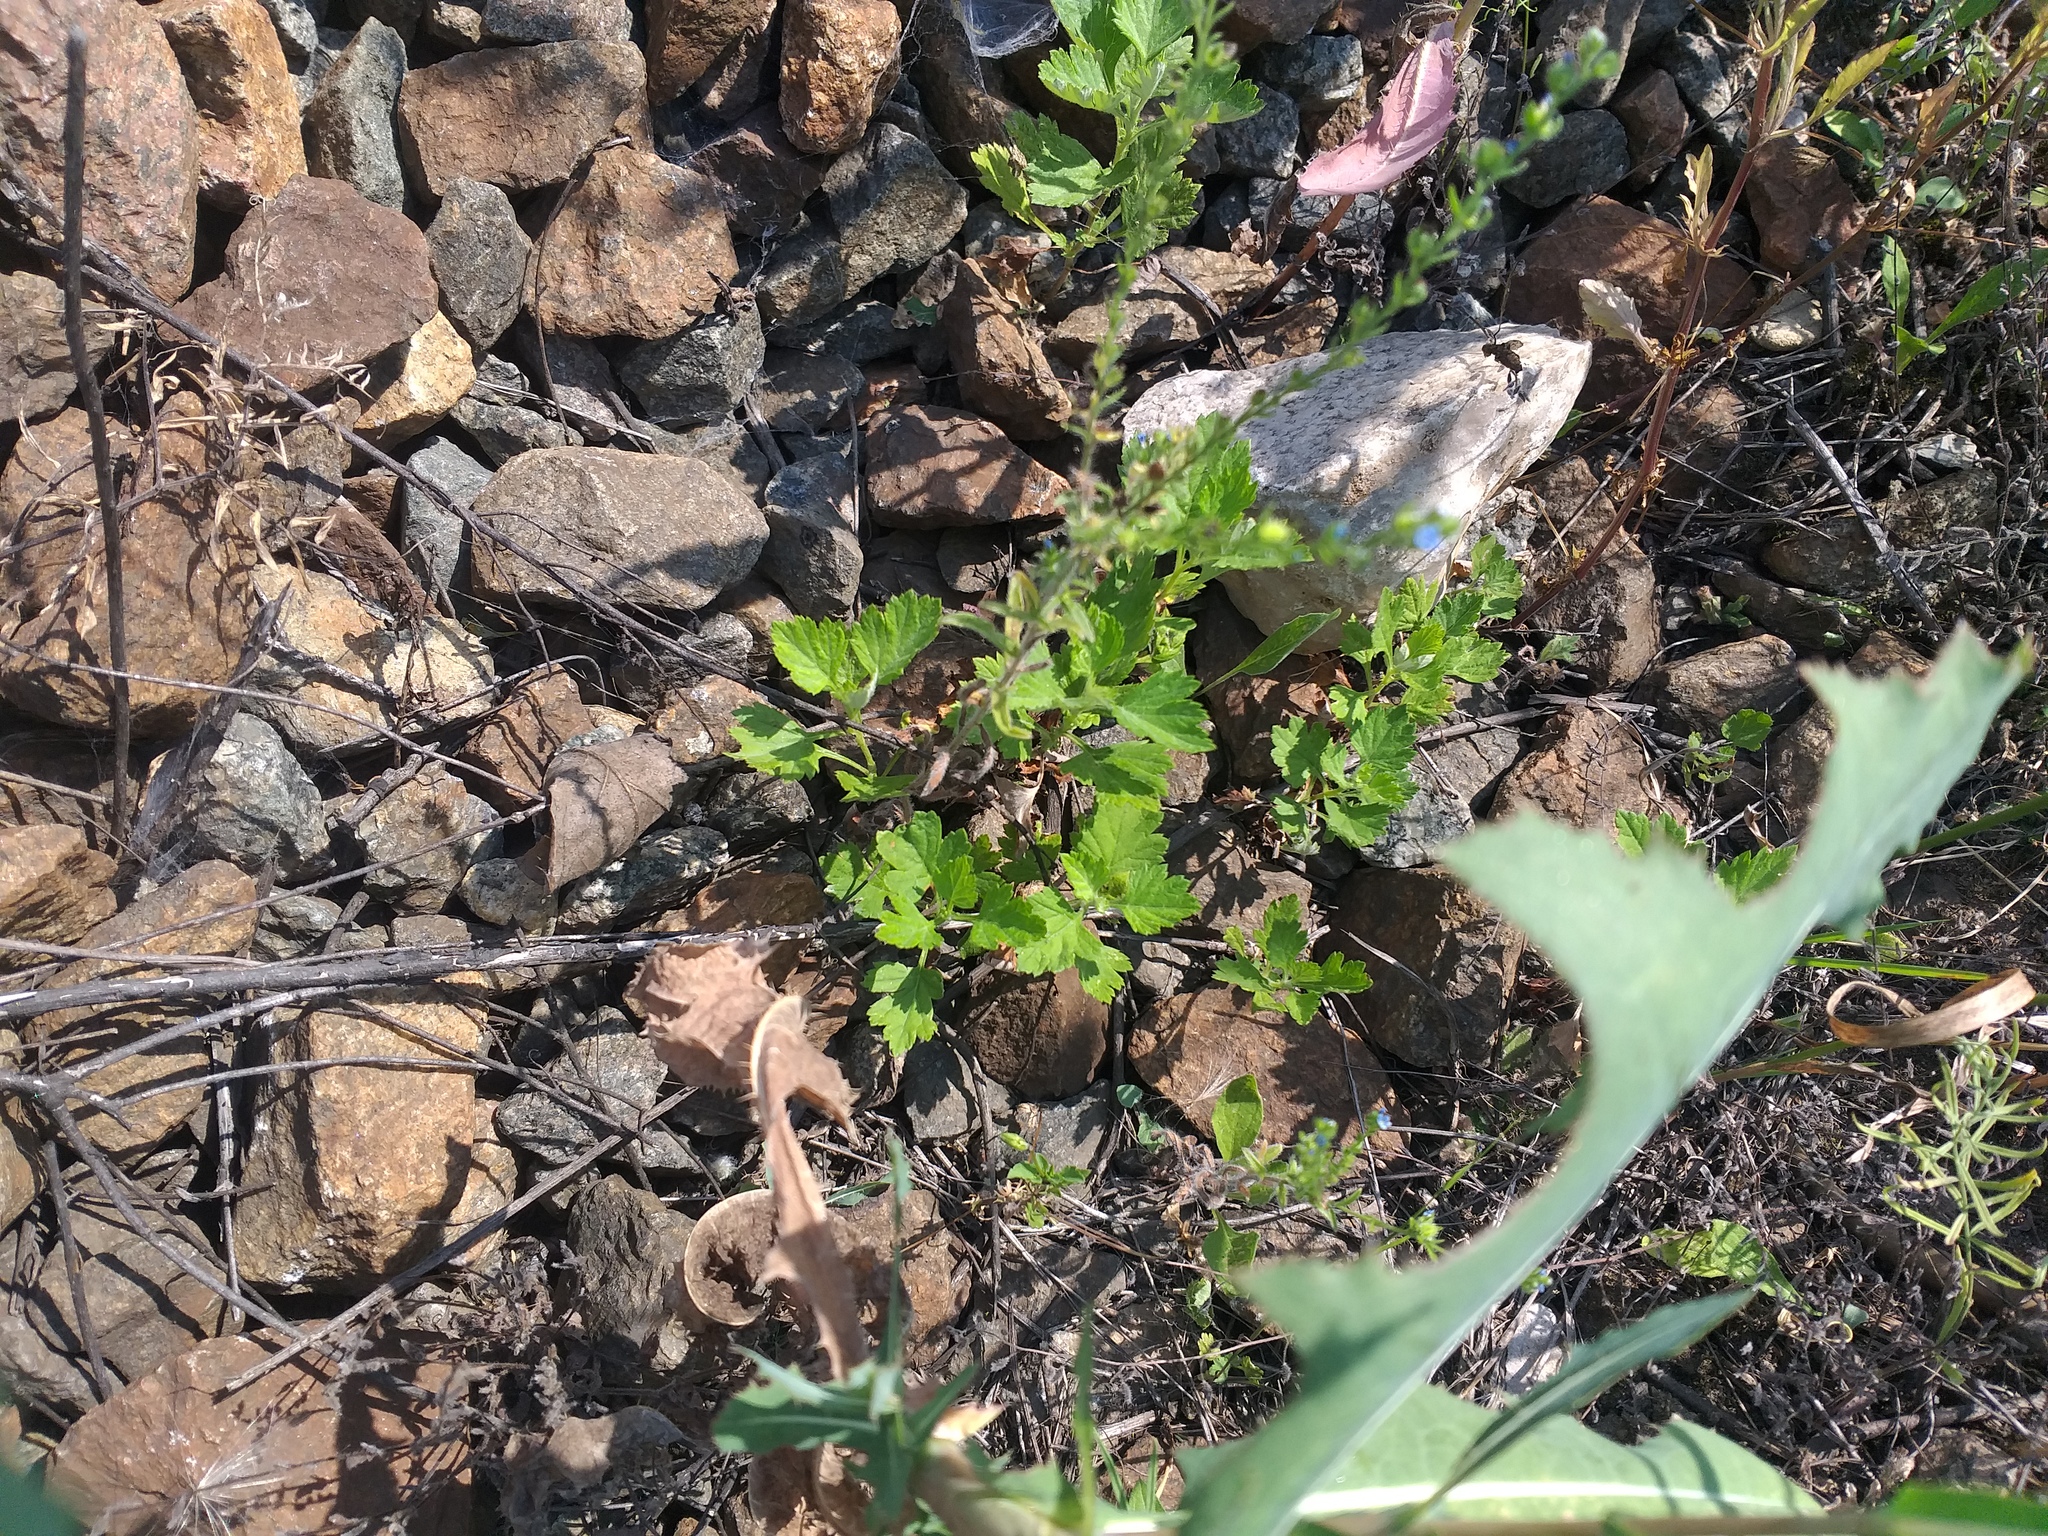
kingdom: Plantae
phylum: Tracheophyta
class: Magnoliopsida
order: Asterales
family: Asteraceae
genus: Artemisia
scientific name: Artemisia vulgaris
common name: Mugwort
